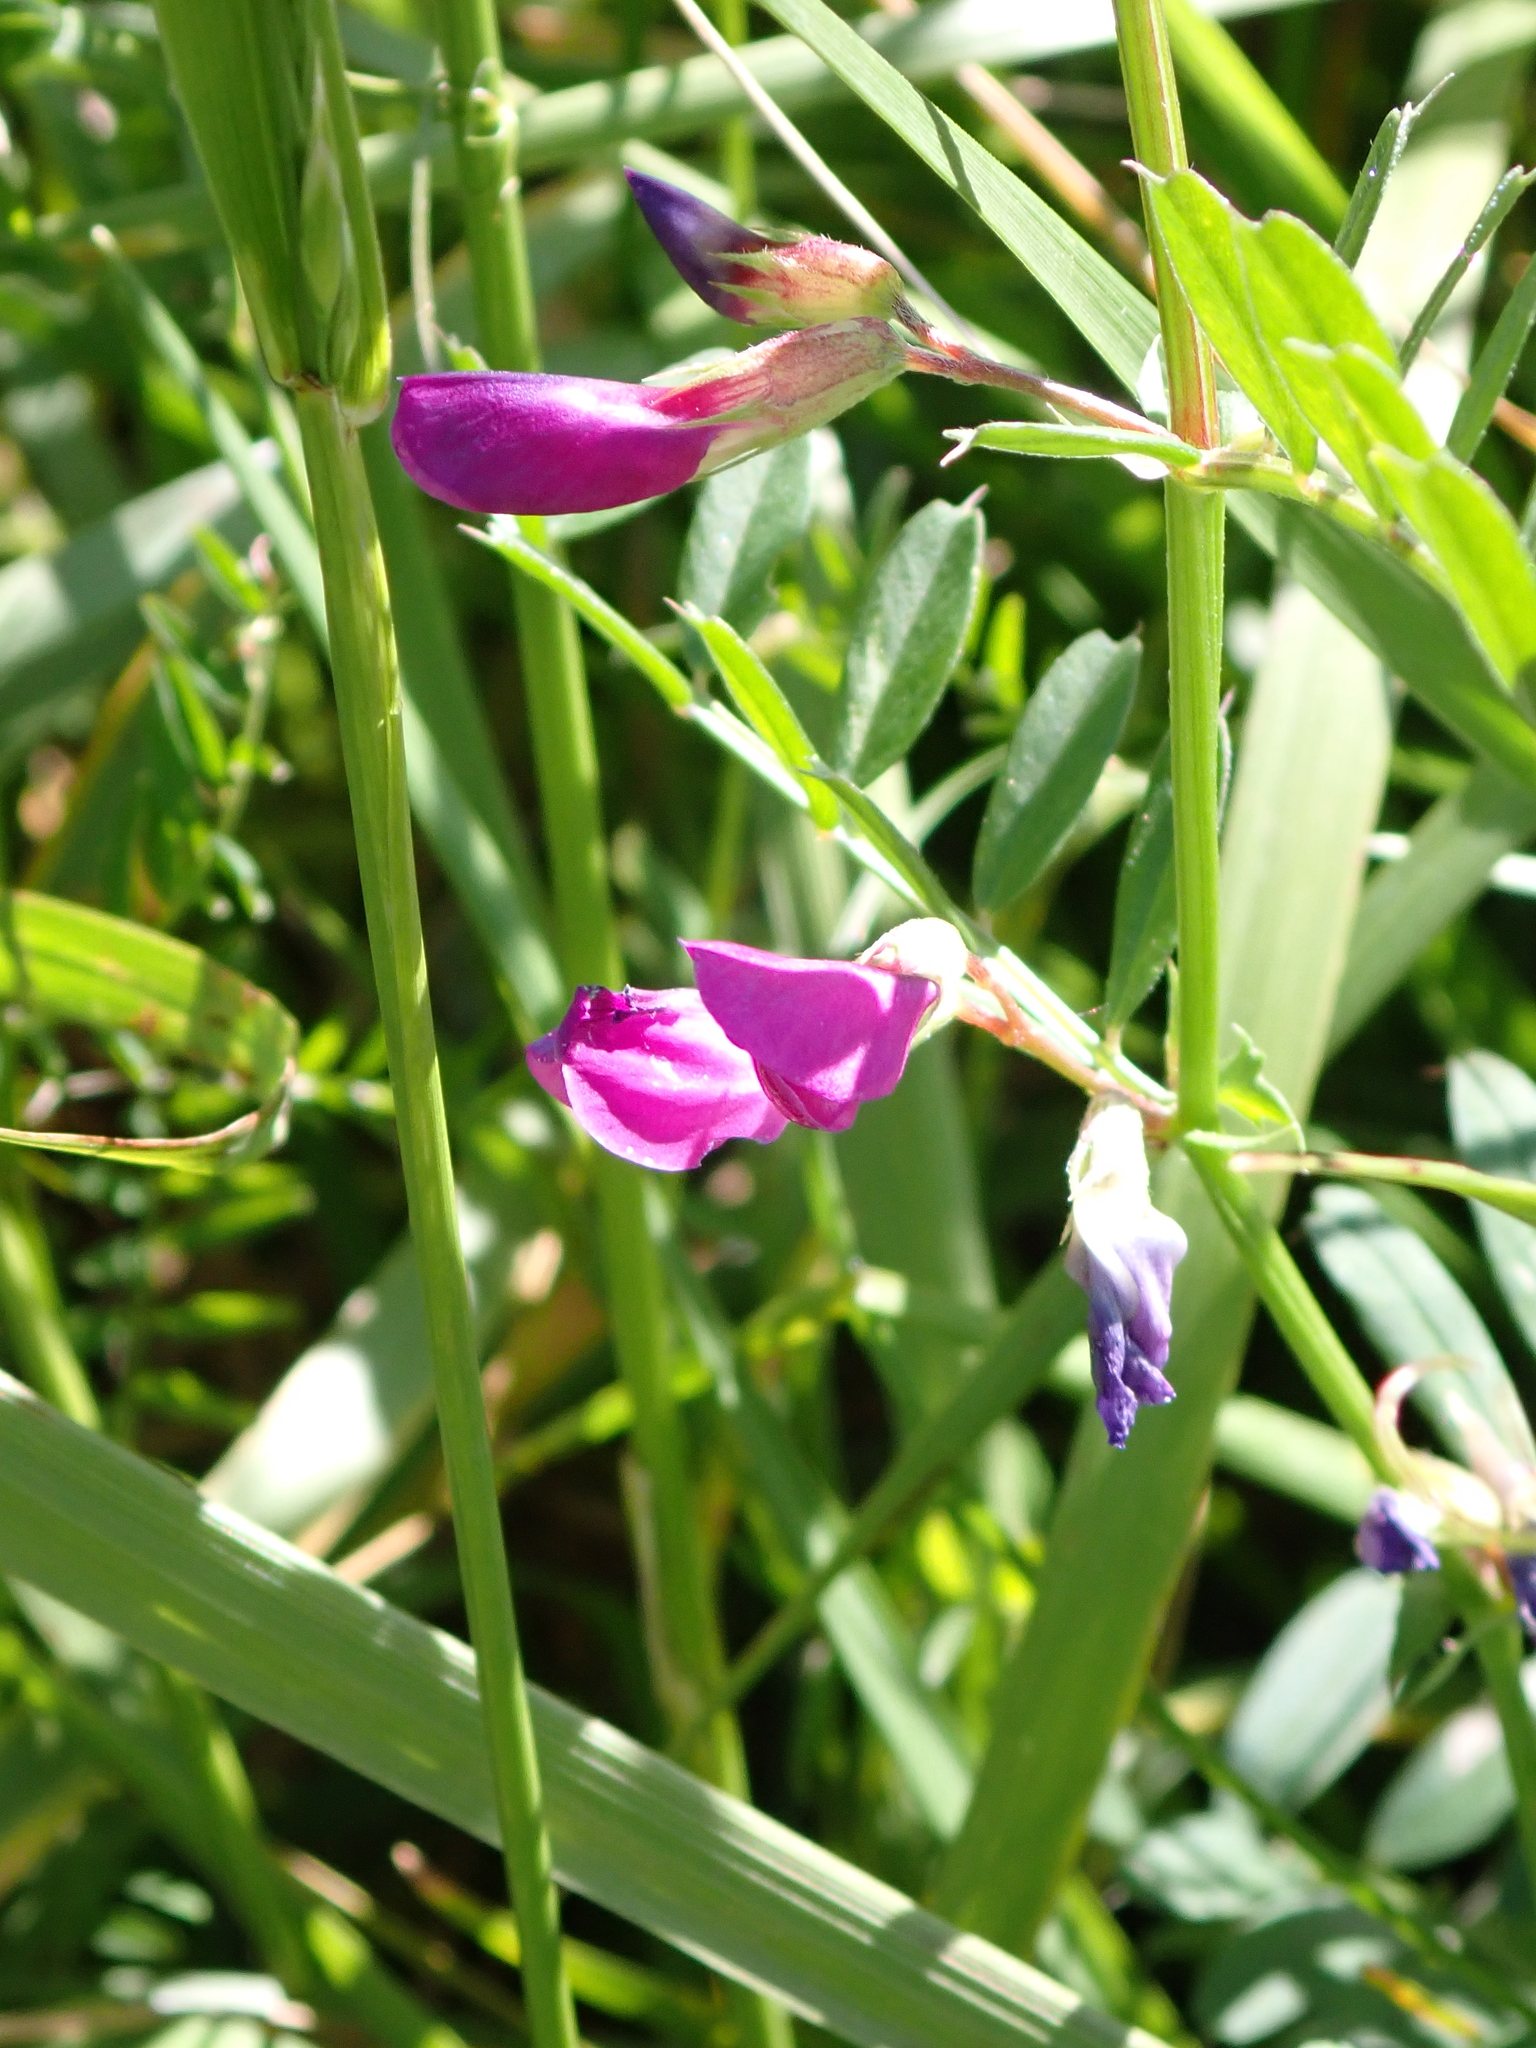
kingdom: Plantae
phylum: Tracheophyta
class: Magnoliopsida
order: Fabales
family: Fabaceae
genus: Vicia
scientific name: Vicia sativa
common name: Garden vetch
